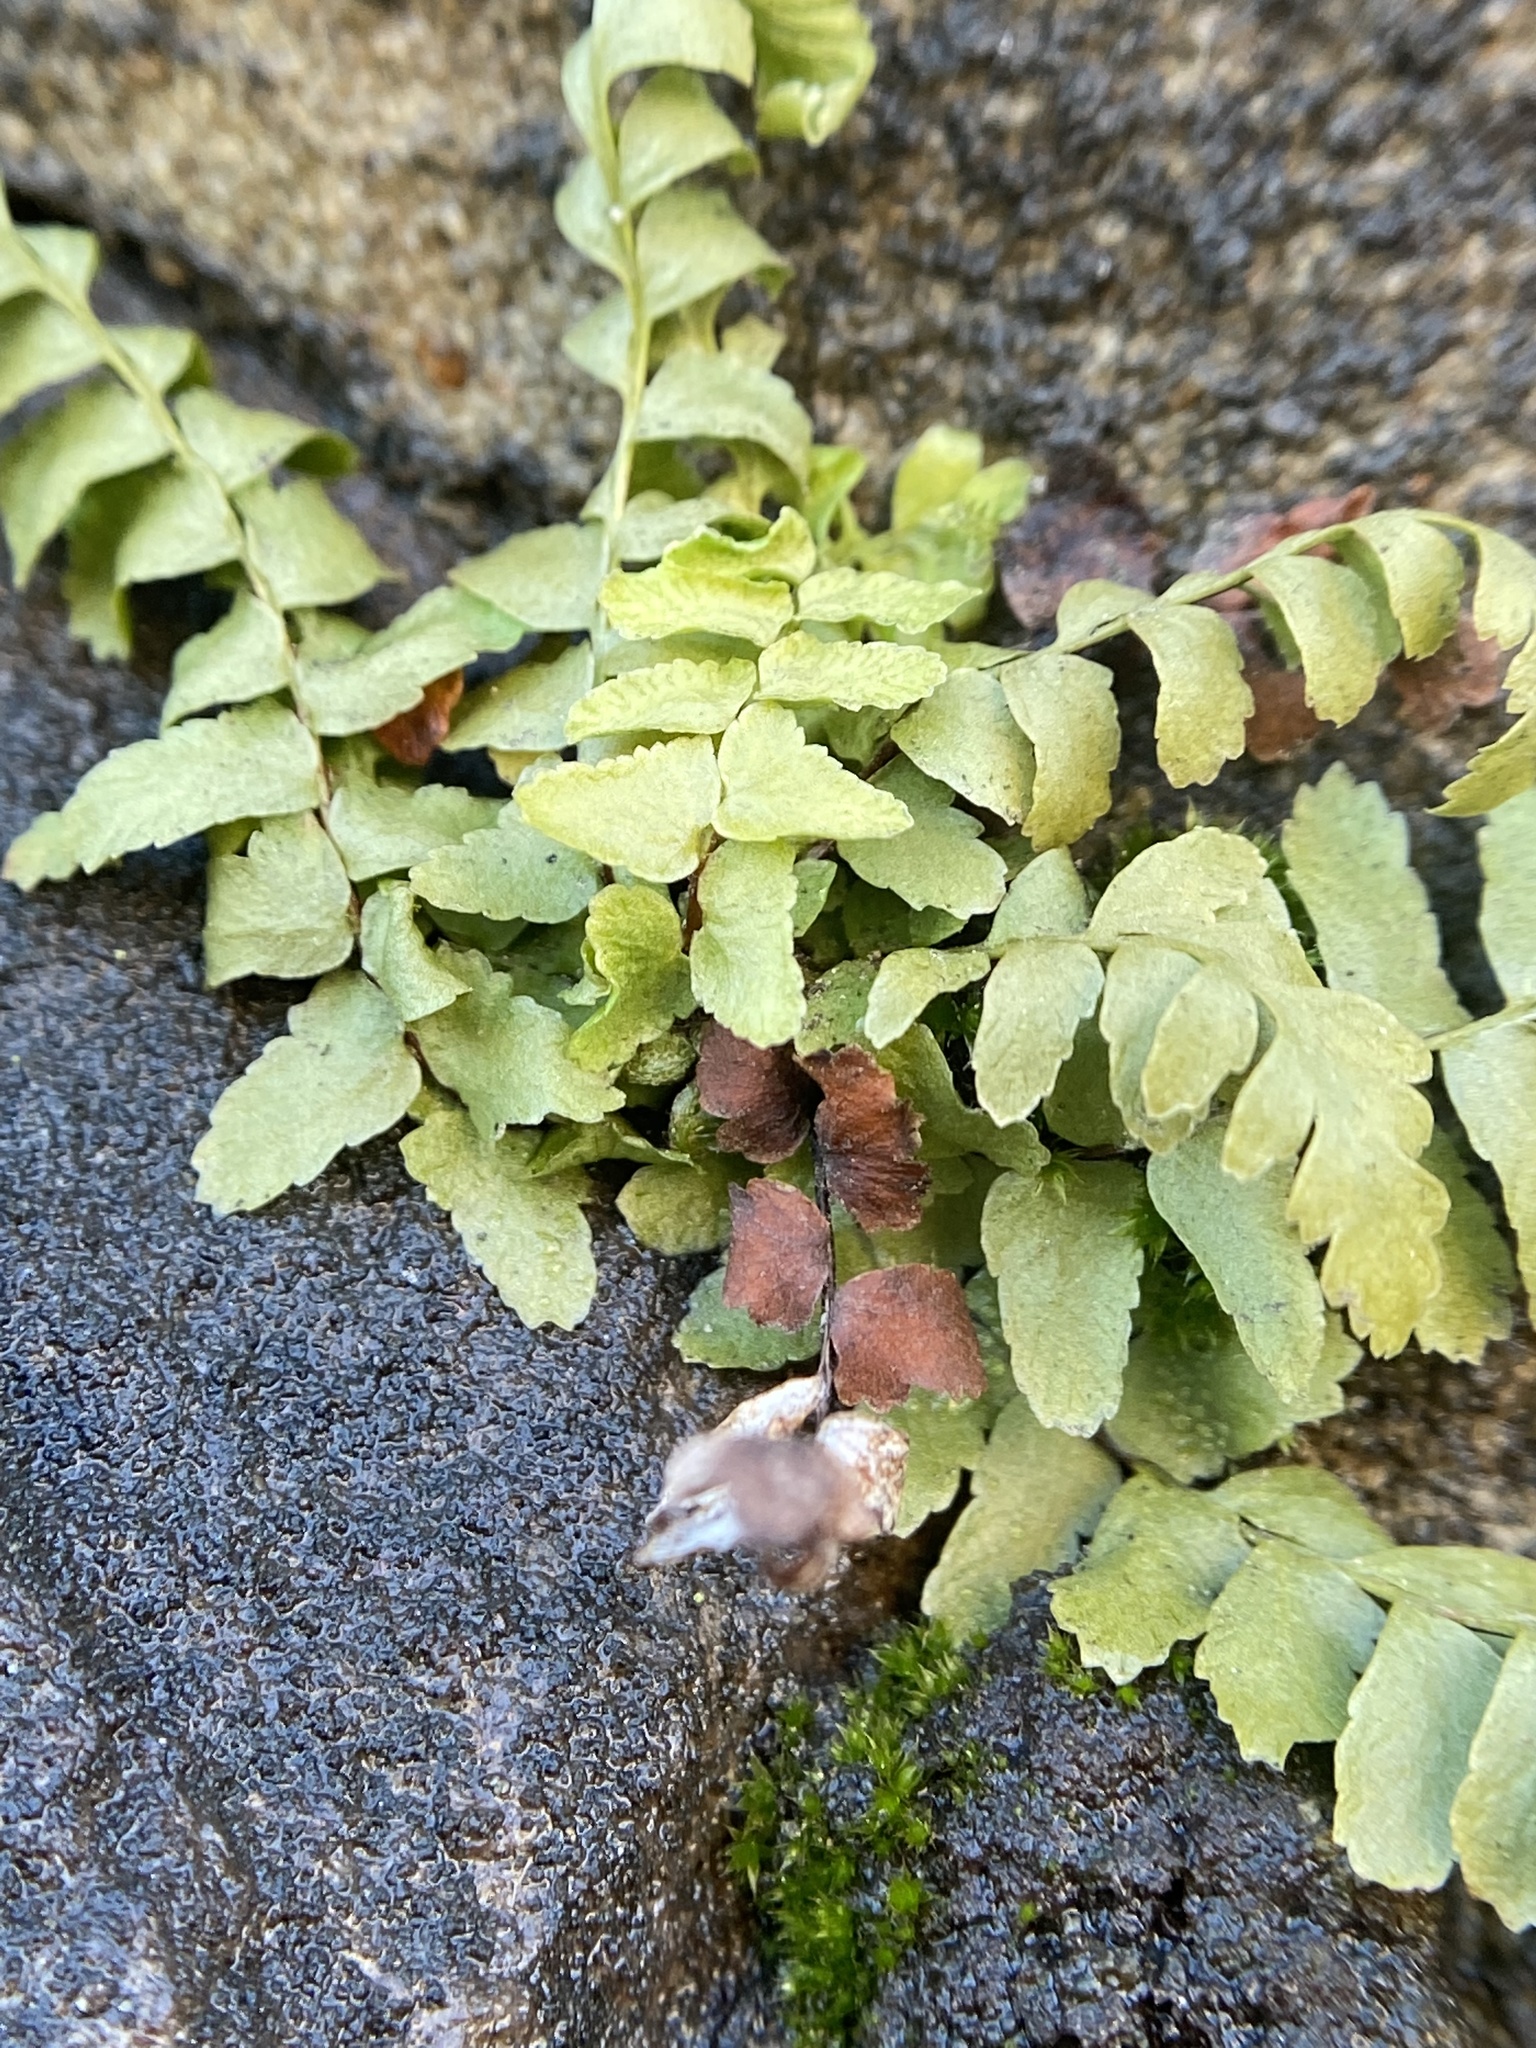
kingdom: Plantae
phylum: Tracheophyta
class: Polypodiopsida
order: Polypodiales
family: Aspleniaceae
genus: Asplenium
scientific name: Asplenium platyneuron
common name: Ebony spleenwort
